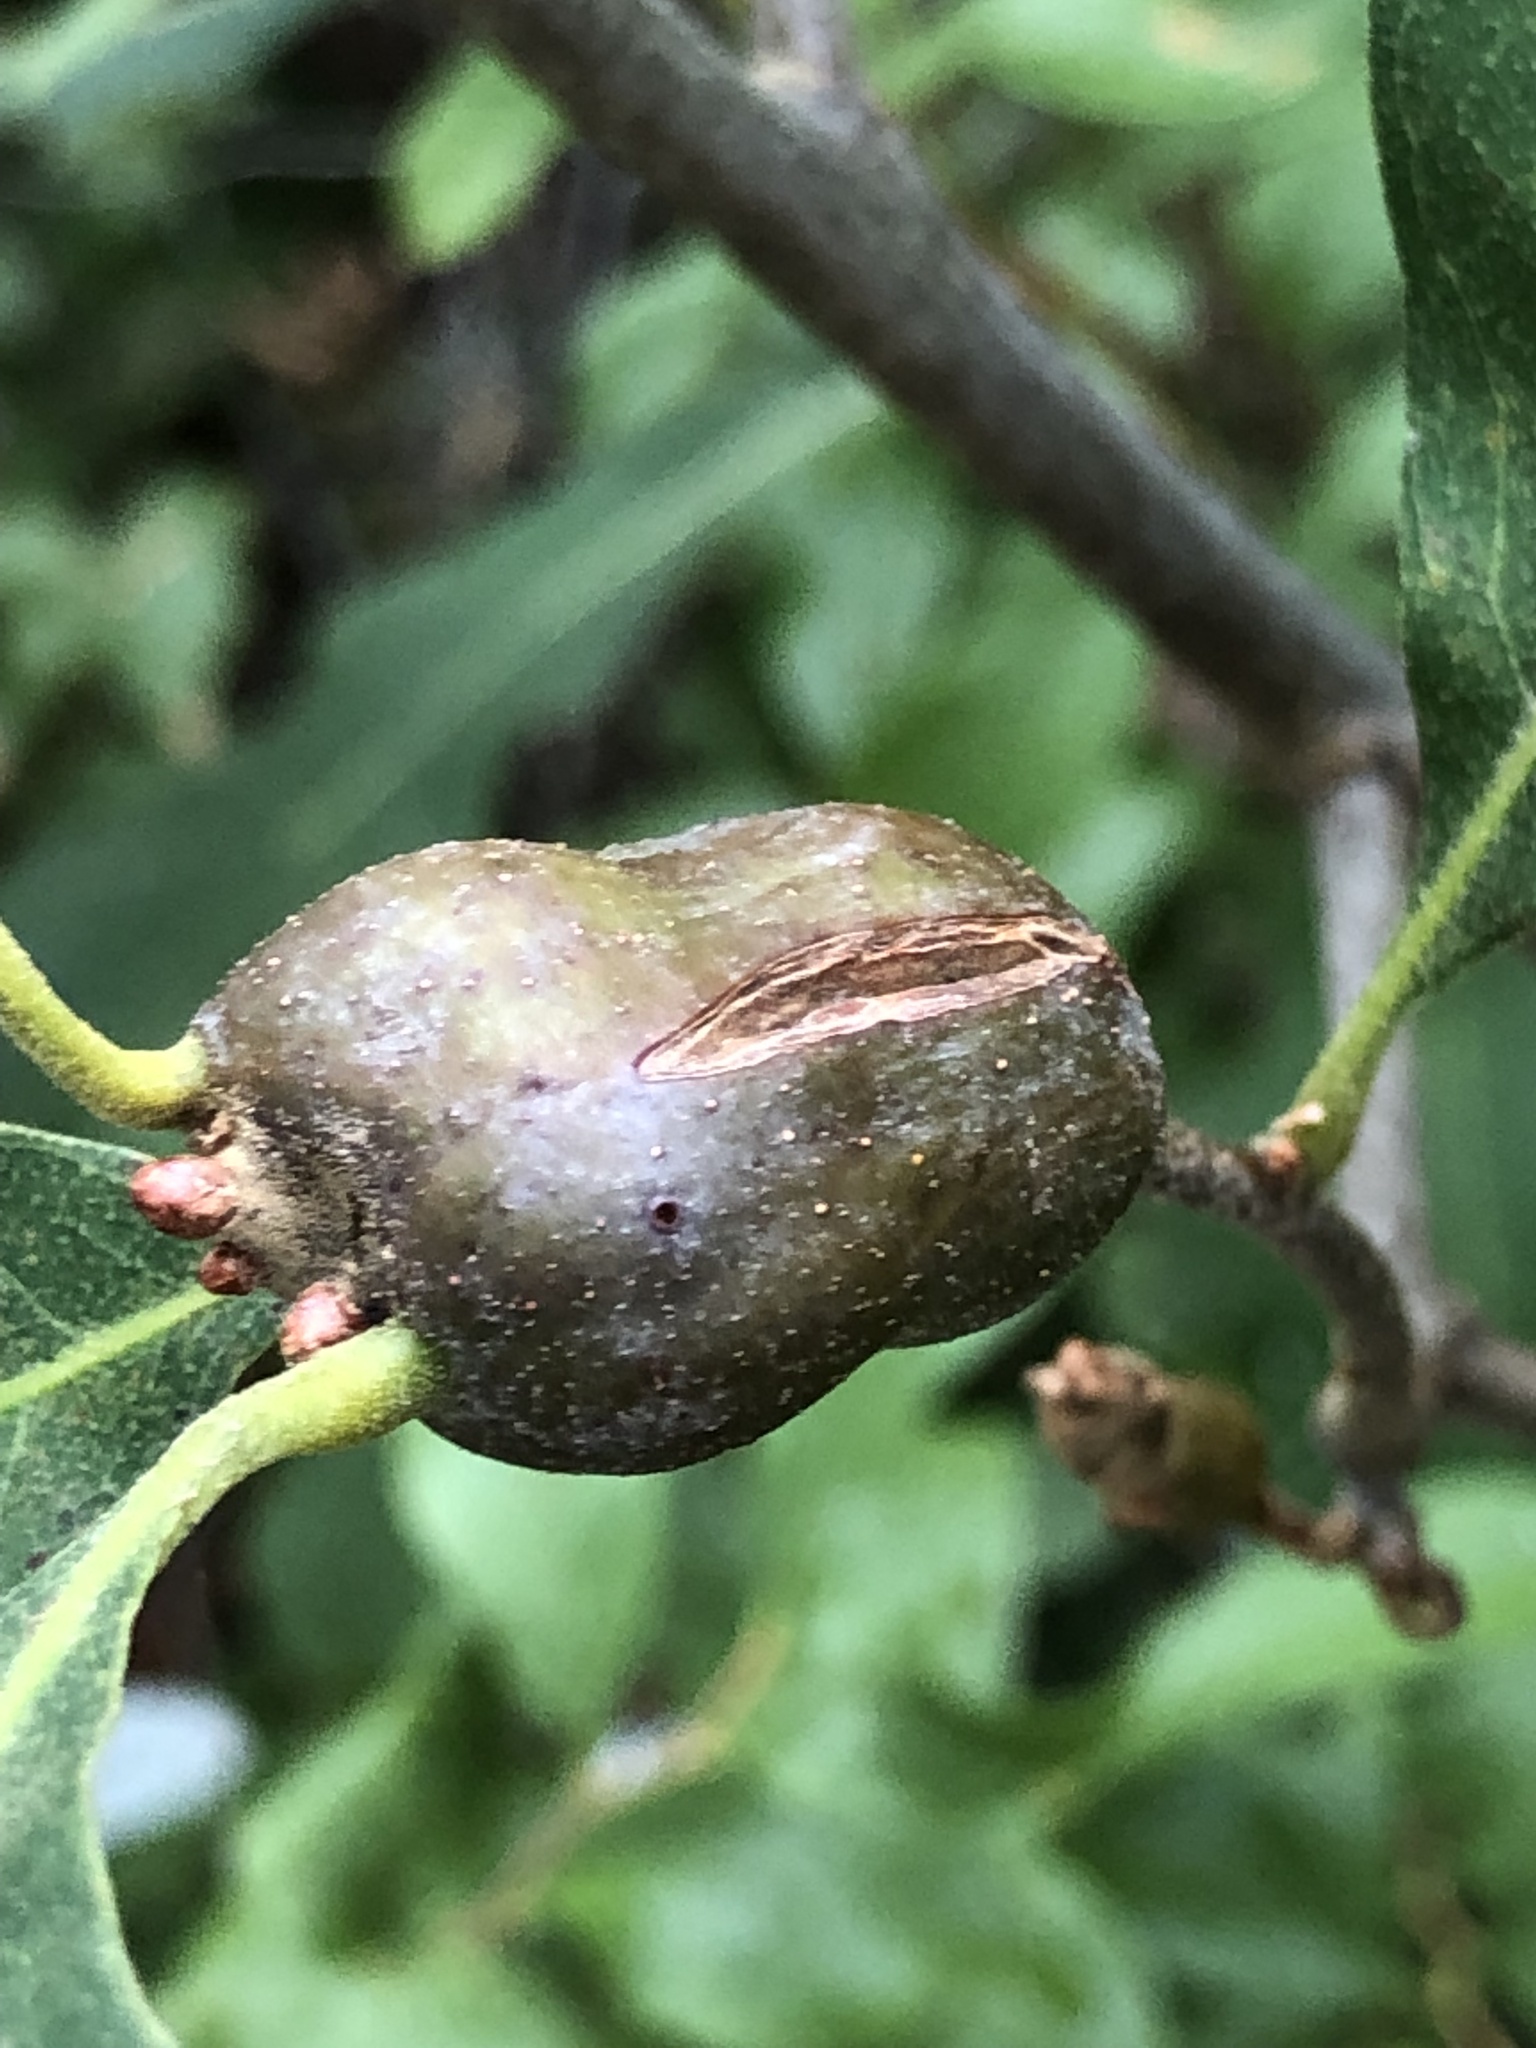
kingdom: Animalia
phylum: Arthropoda
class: Insecta
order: Hymenoptera
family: Cynipidae
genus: Zapatella
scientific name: Zapatella quercusphellos
